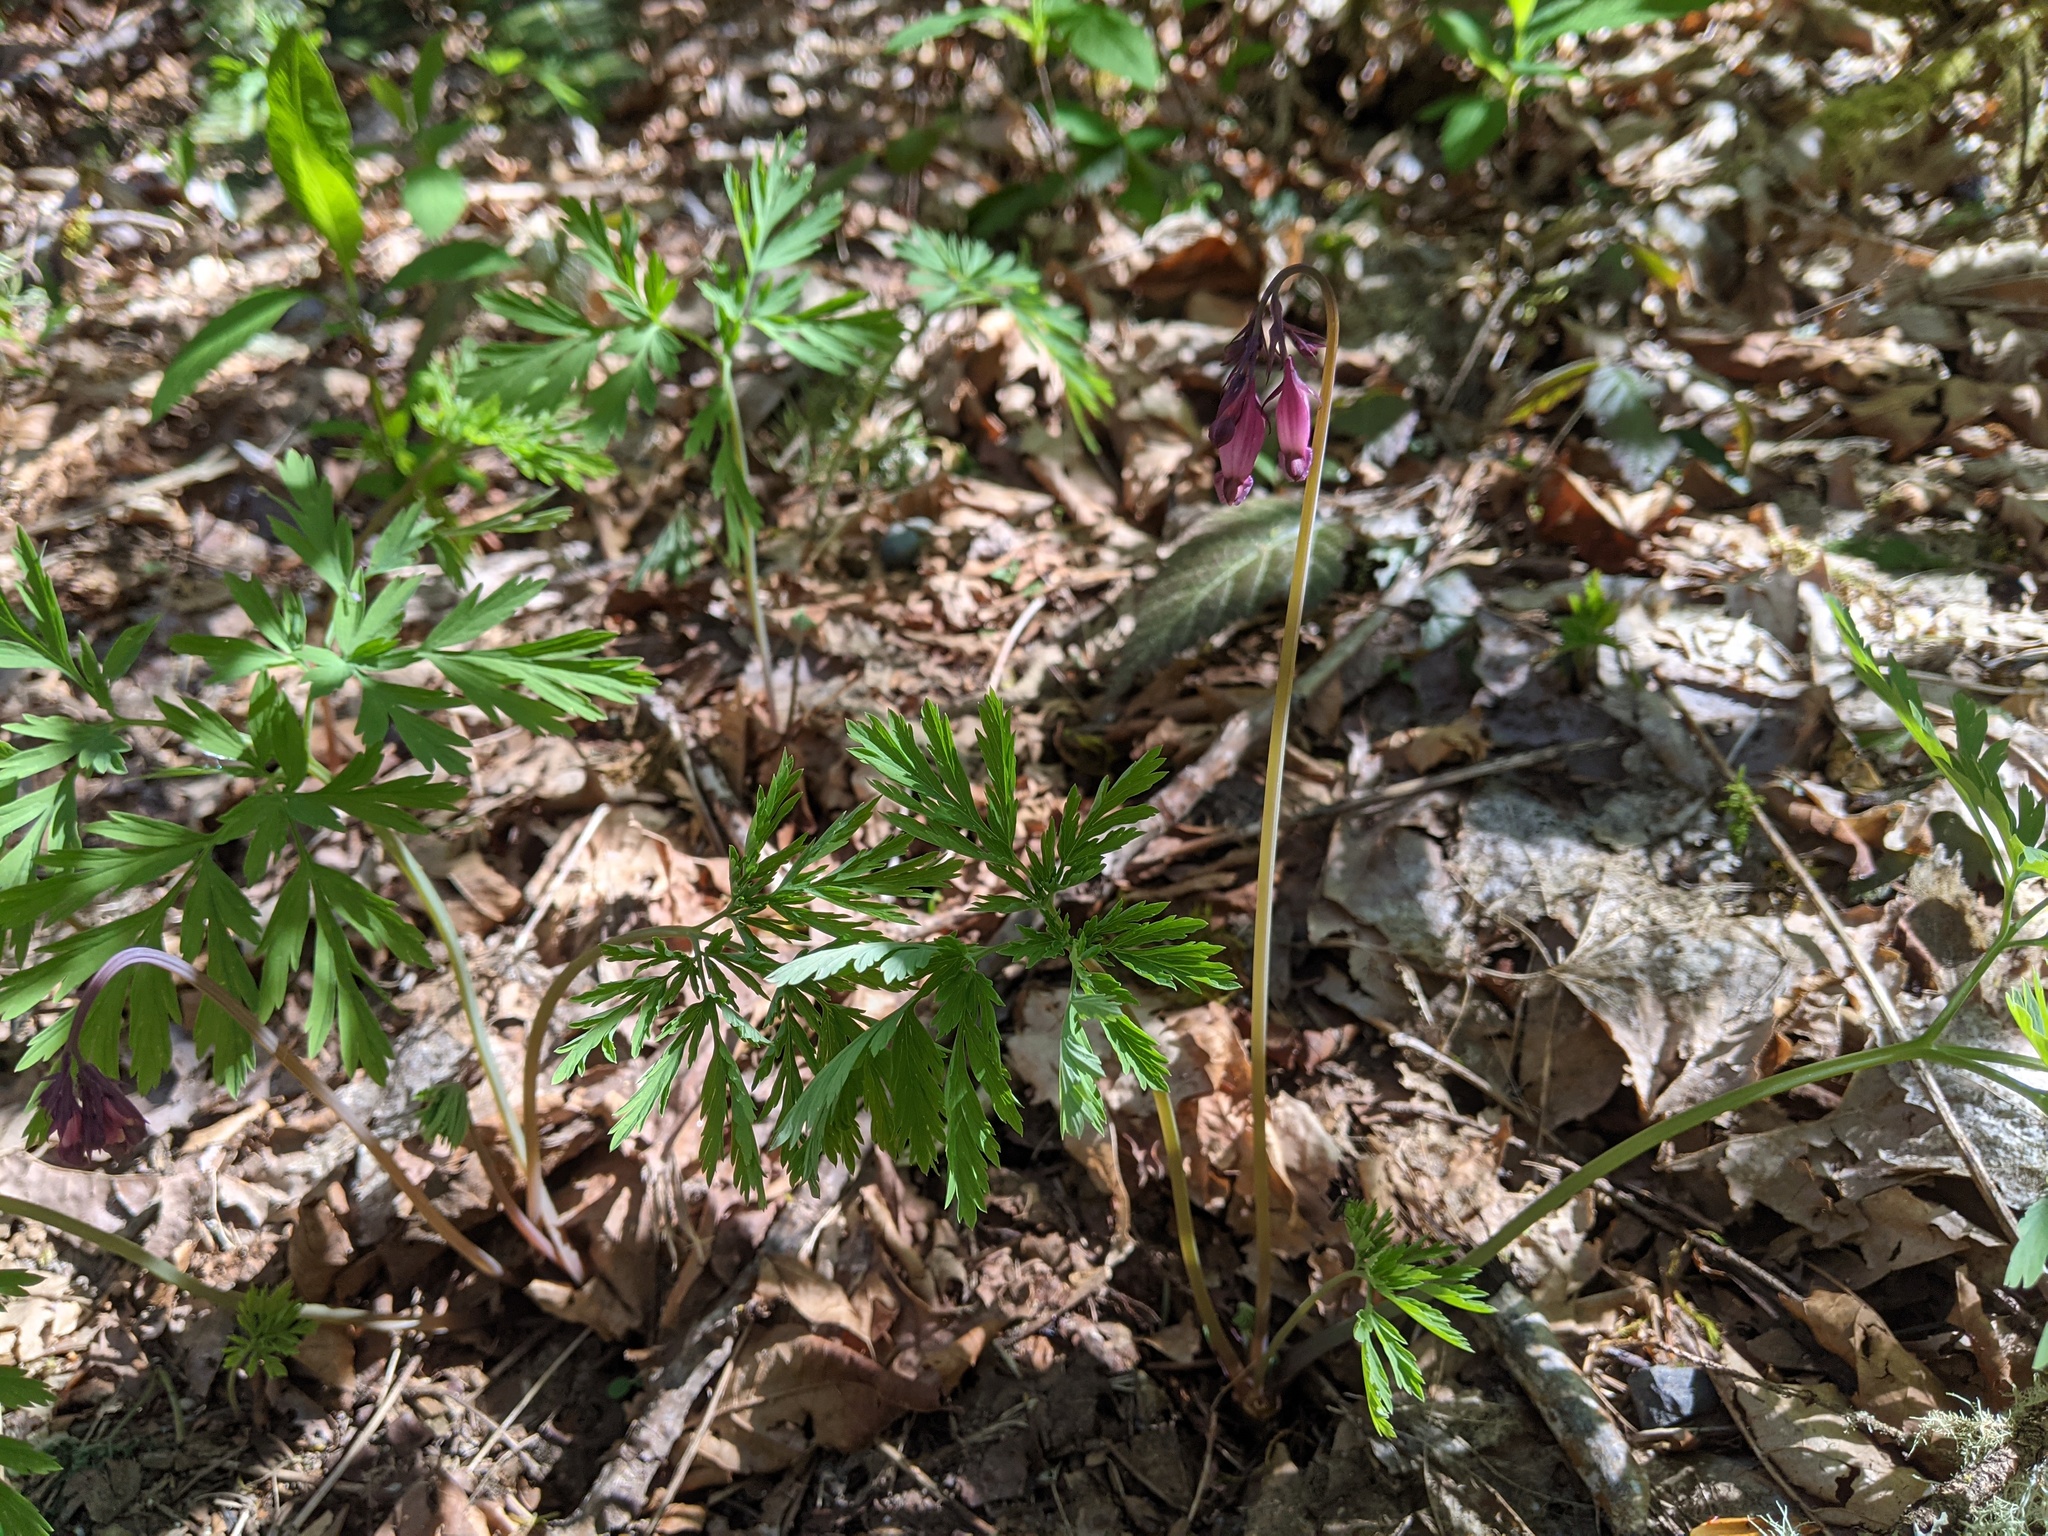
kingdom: Plantae
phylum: Tracheophyta
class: Magnoliopsida
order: Ranunculales
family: Papaveraceae
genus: Dicentra
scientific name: Dicentra formosa
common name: Bleeding-heart
